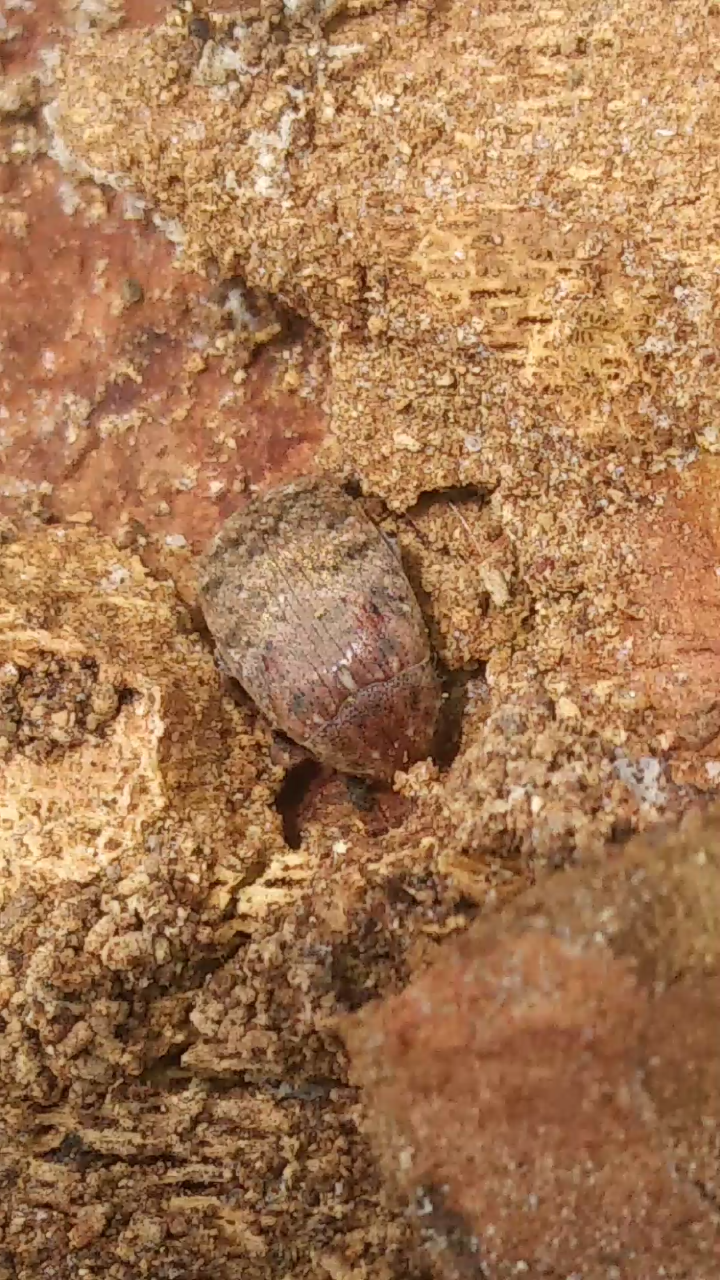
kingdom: Animalia
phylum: Arthropoda
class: Insecta
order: Coleoptera
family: Chrysomelidae
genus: Amblycerus
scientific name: Amblycerus robiniae
